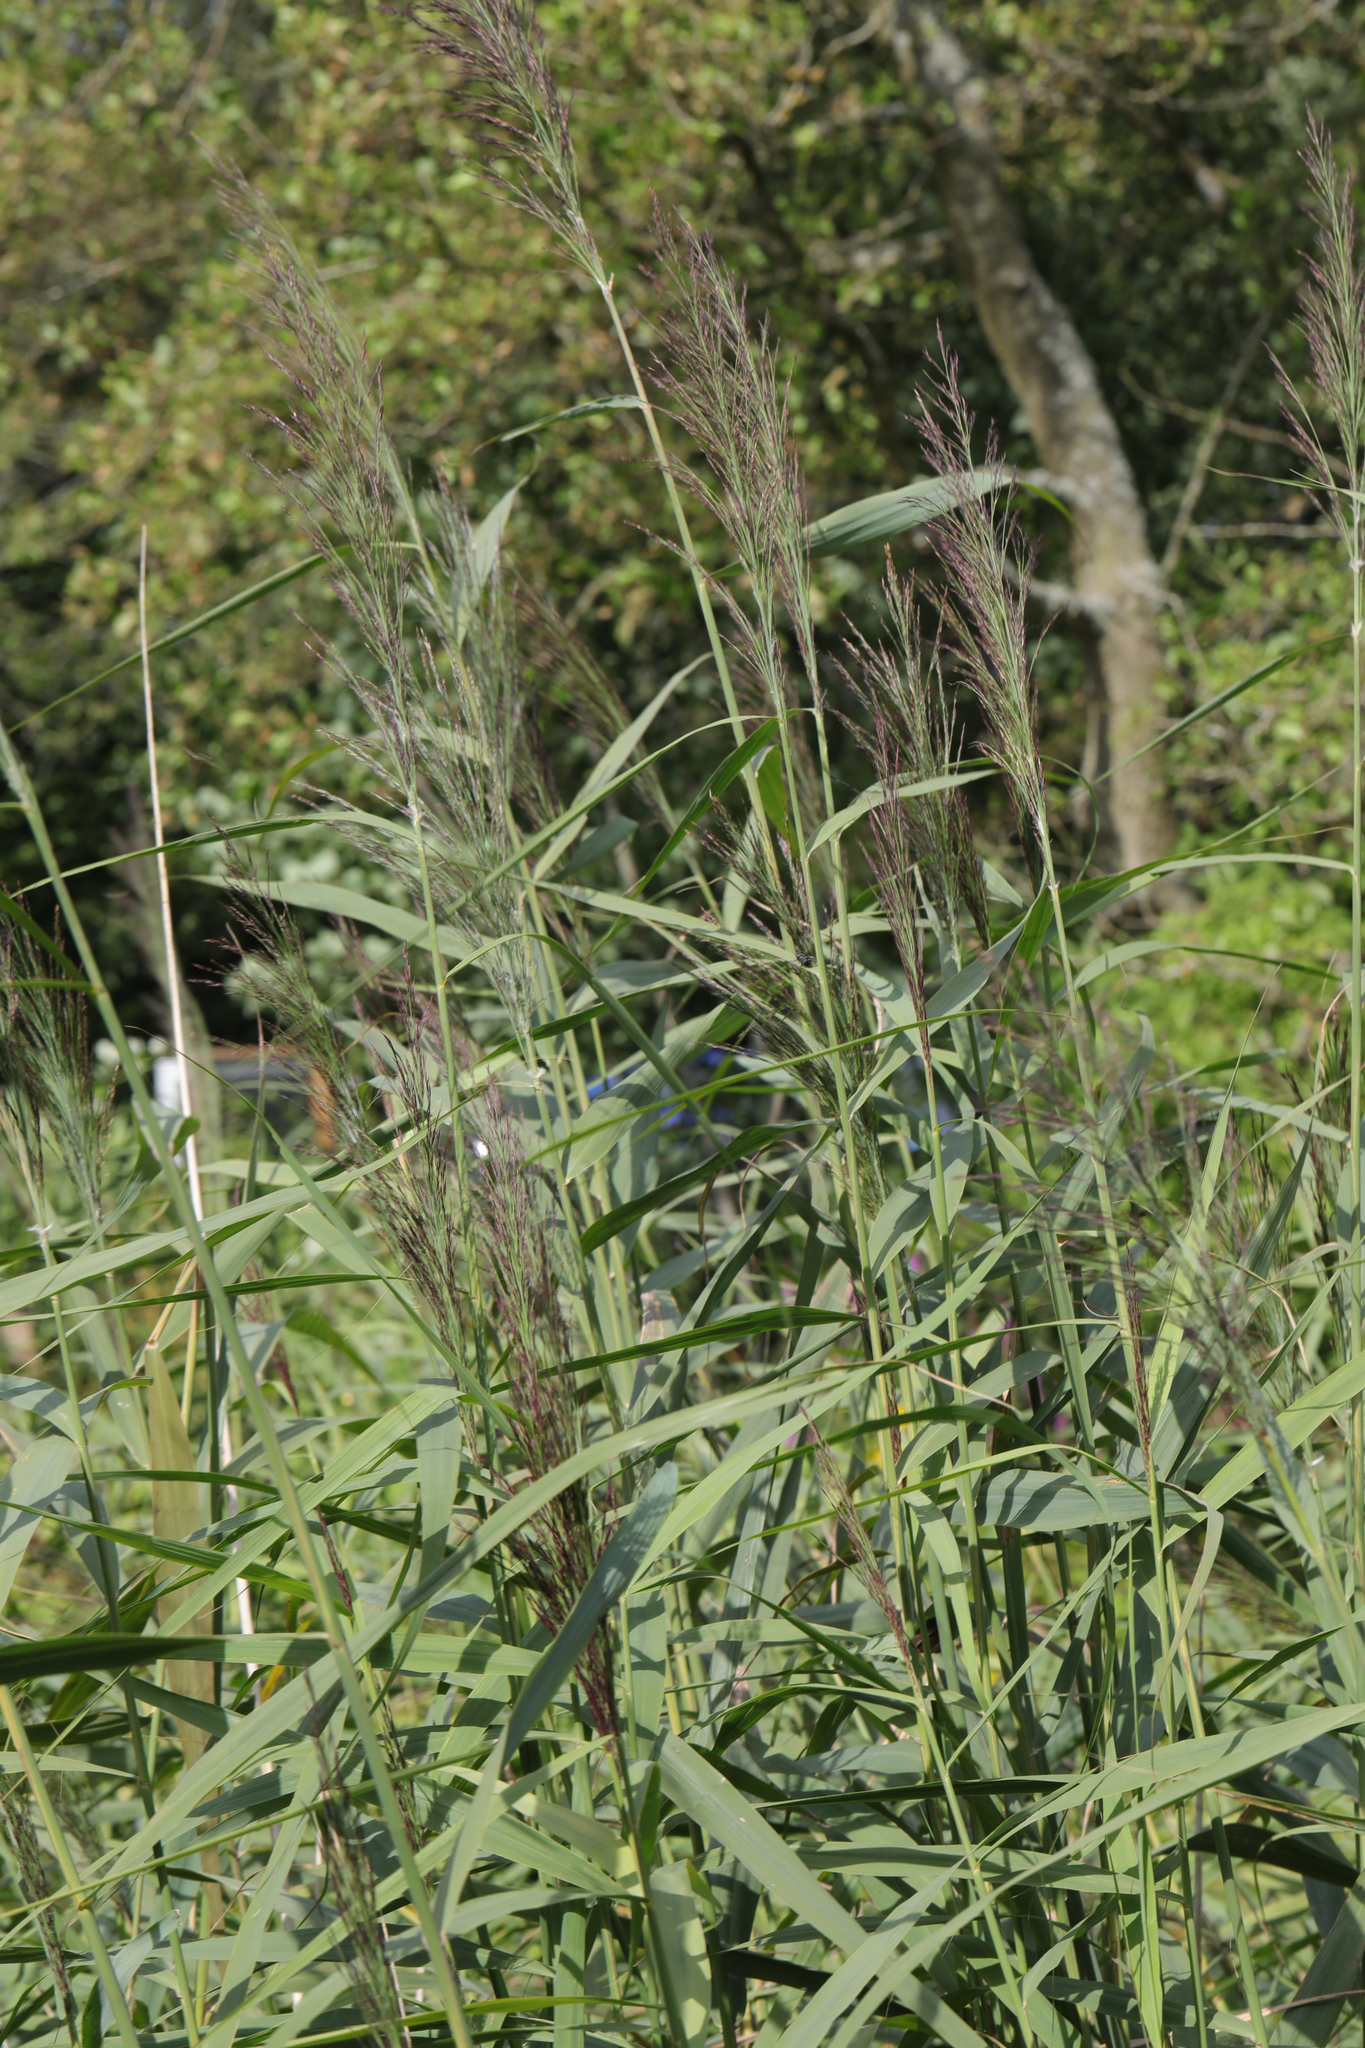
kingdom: Plantae
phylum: Tracheophyta
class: Liliopsida
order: Poales
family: Poaceae
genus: Phragmites
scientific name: Phragmites australis
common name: Common reed
